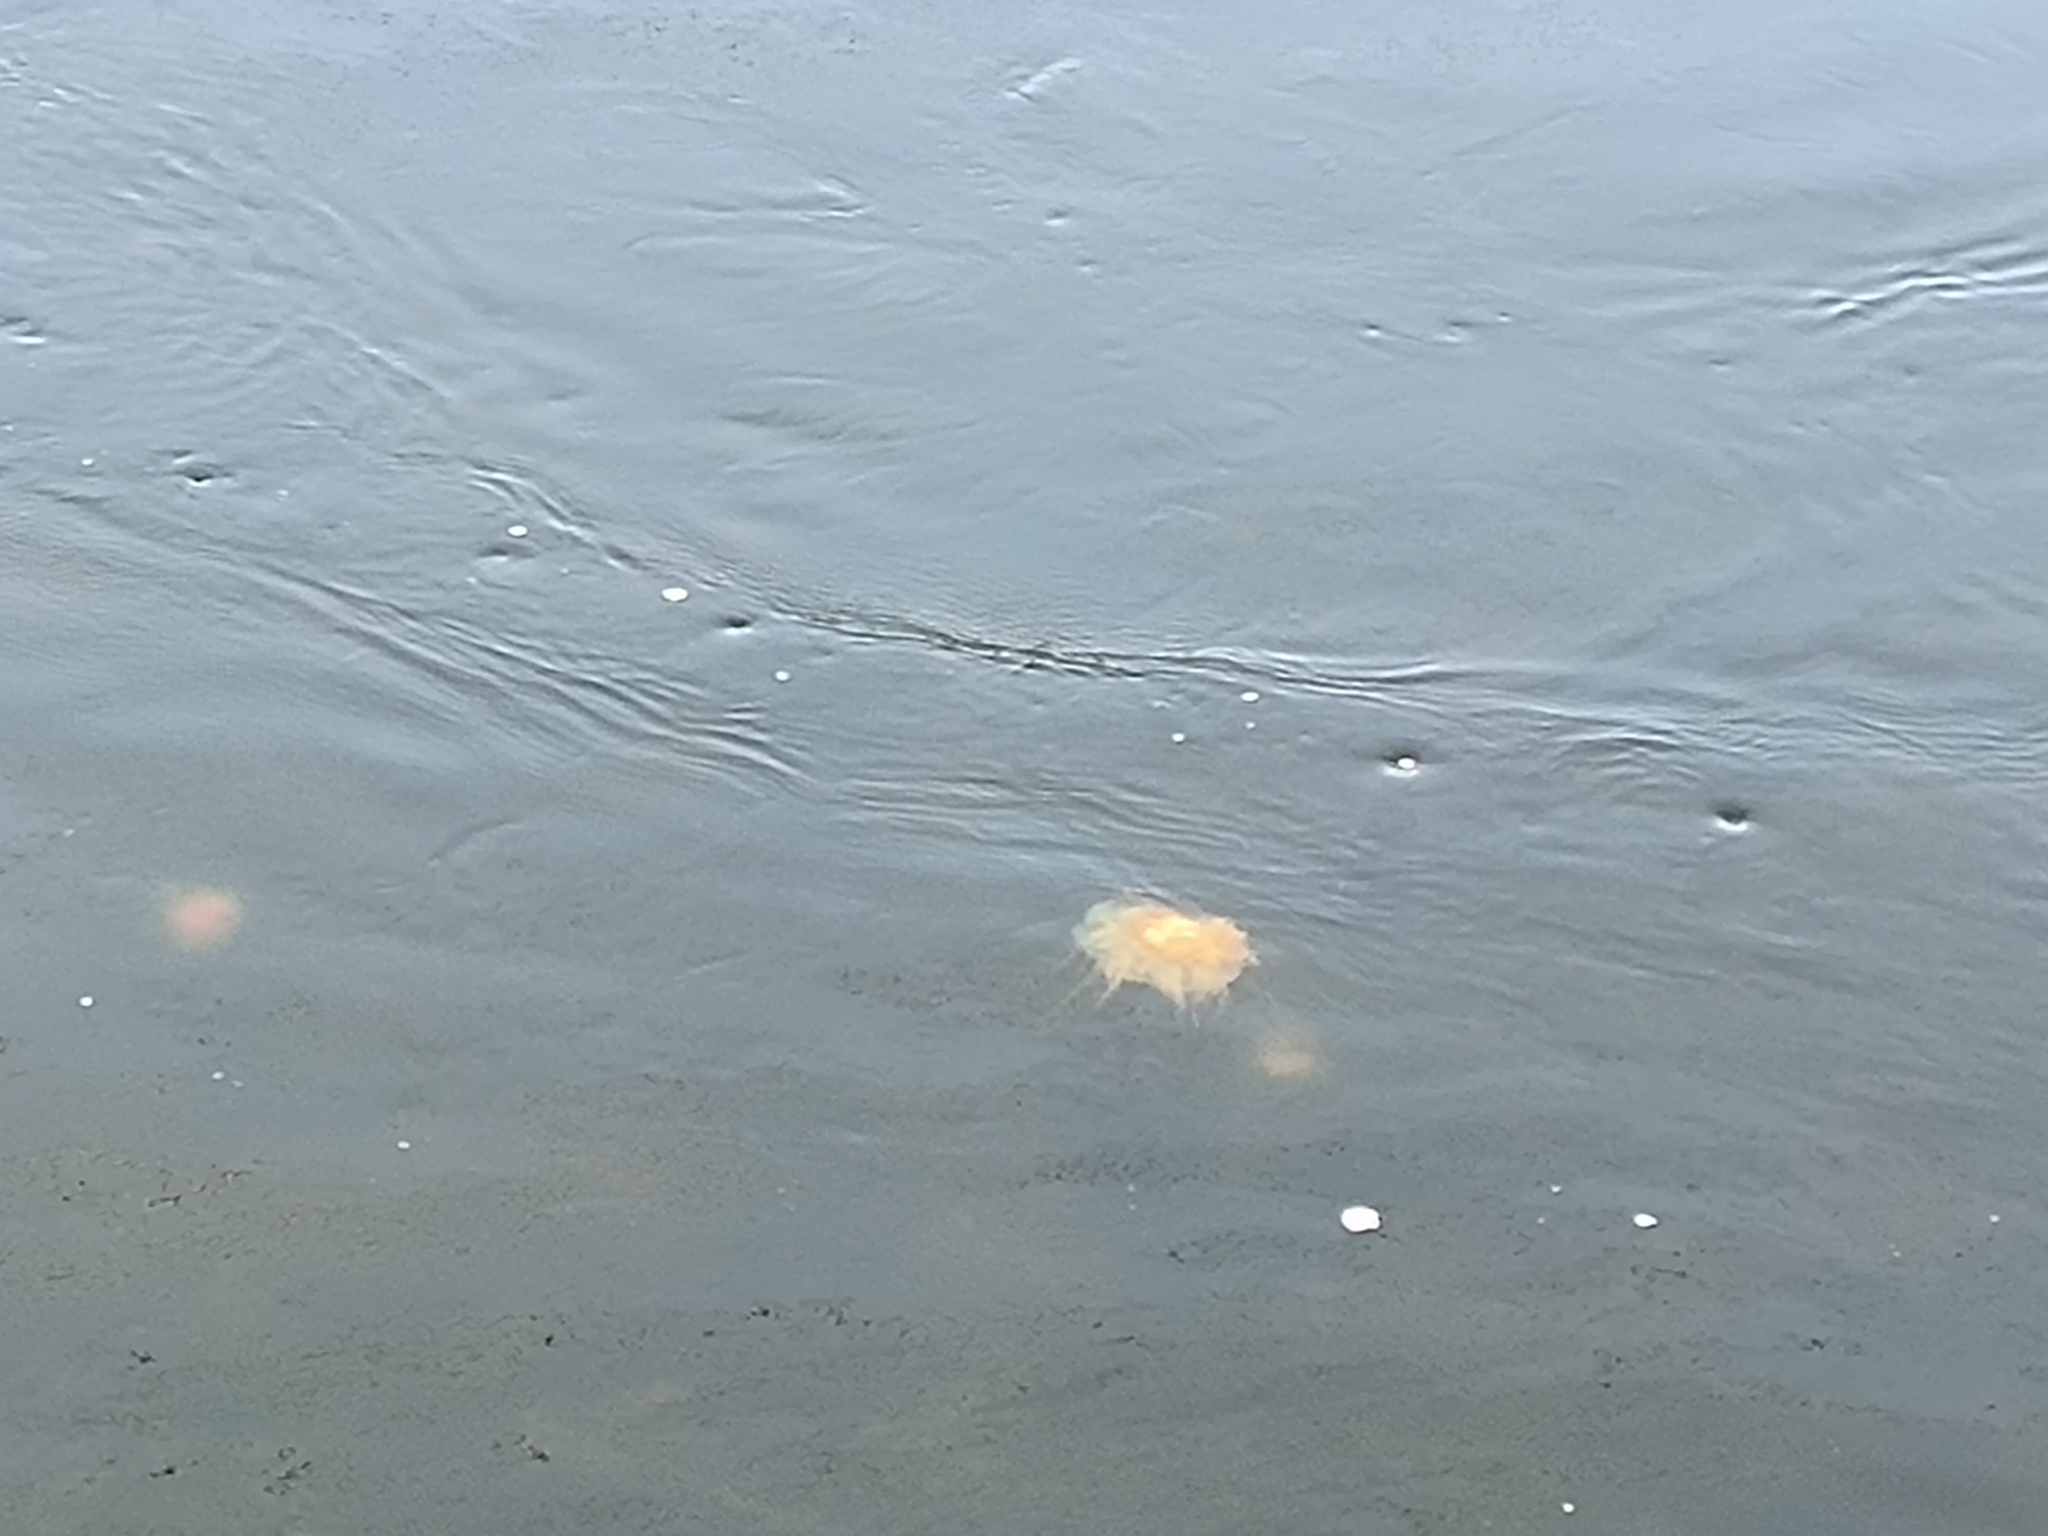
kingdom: Animalia
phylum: Cnidaria
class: Scyphozoa
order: Semaeostomeae
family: Cyaneidae
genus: Cyanea
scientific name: Cyanea fulva
